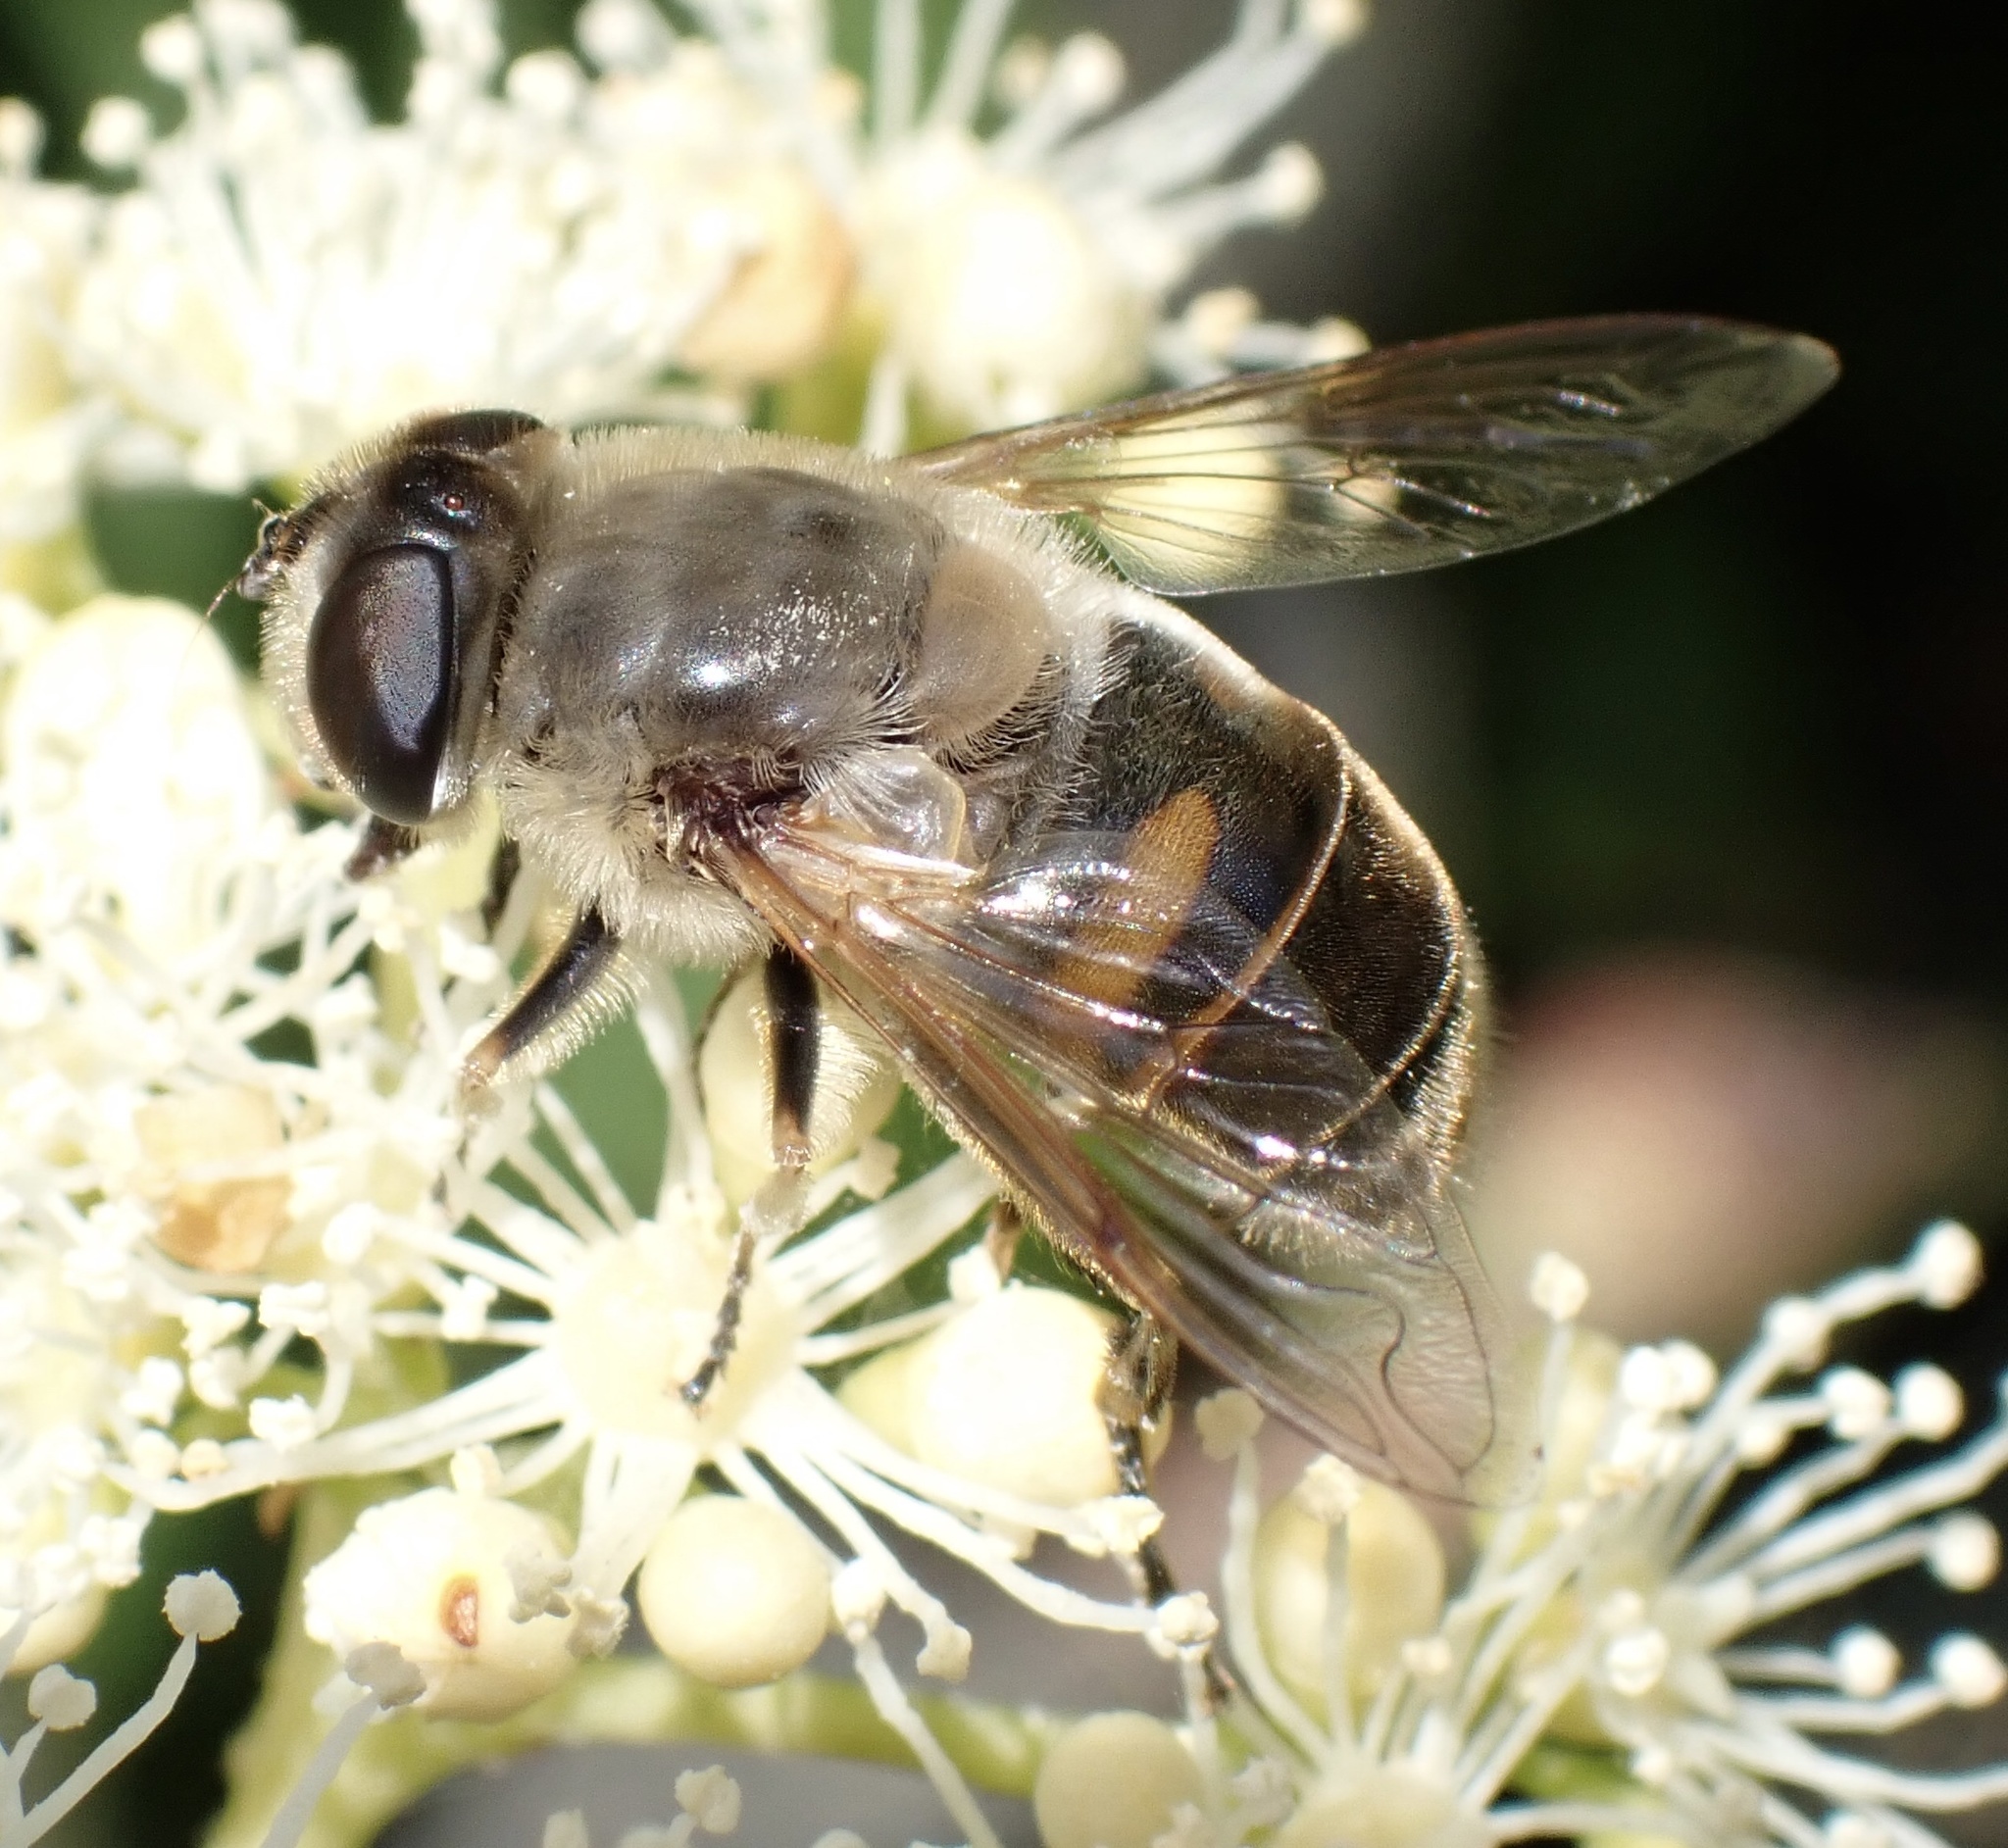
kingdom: Animalia
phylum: Arthropoda
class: Insecta
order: Diptera
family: Syrphidae
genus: Eristalis
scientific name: Eristalis tenax
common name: Drone fly
